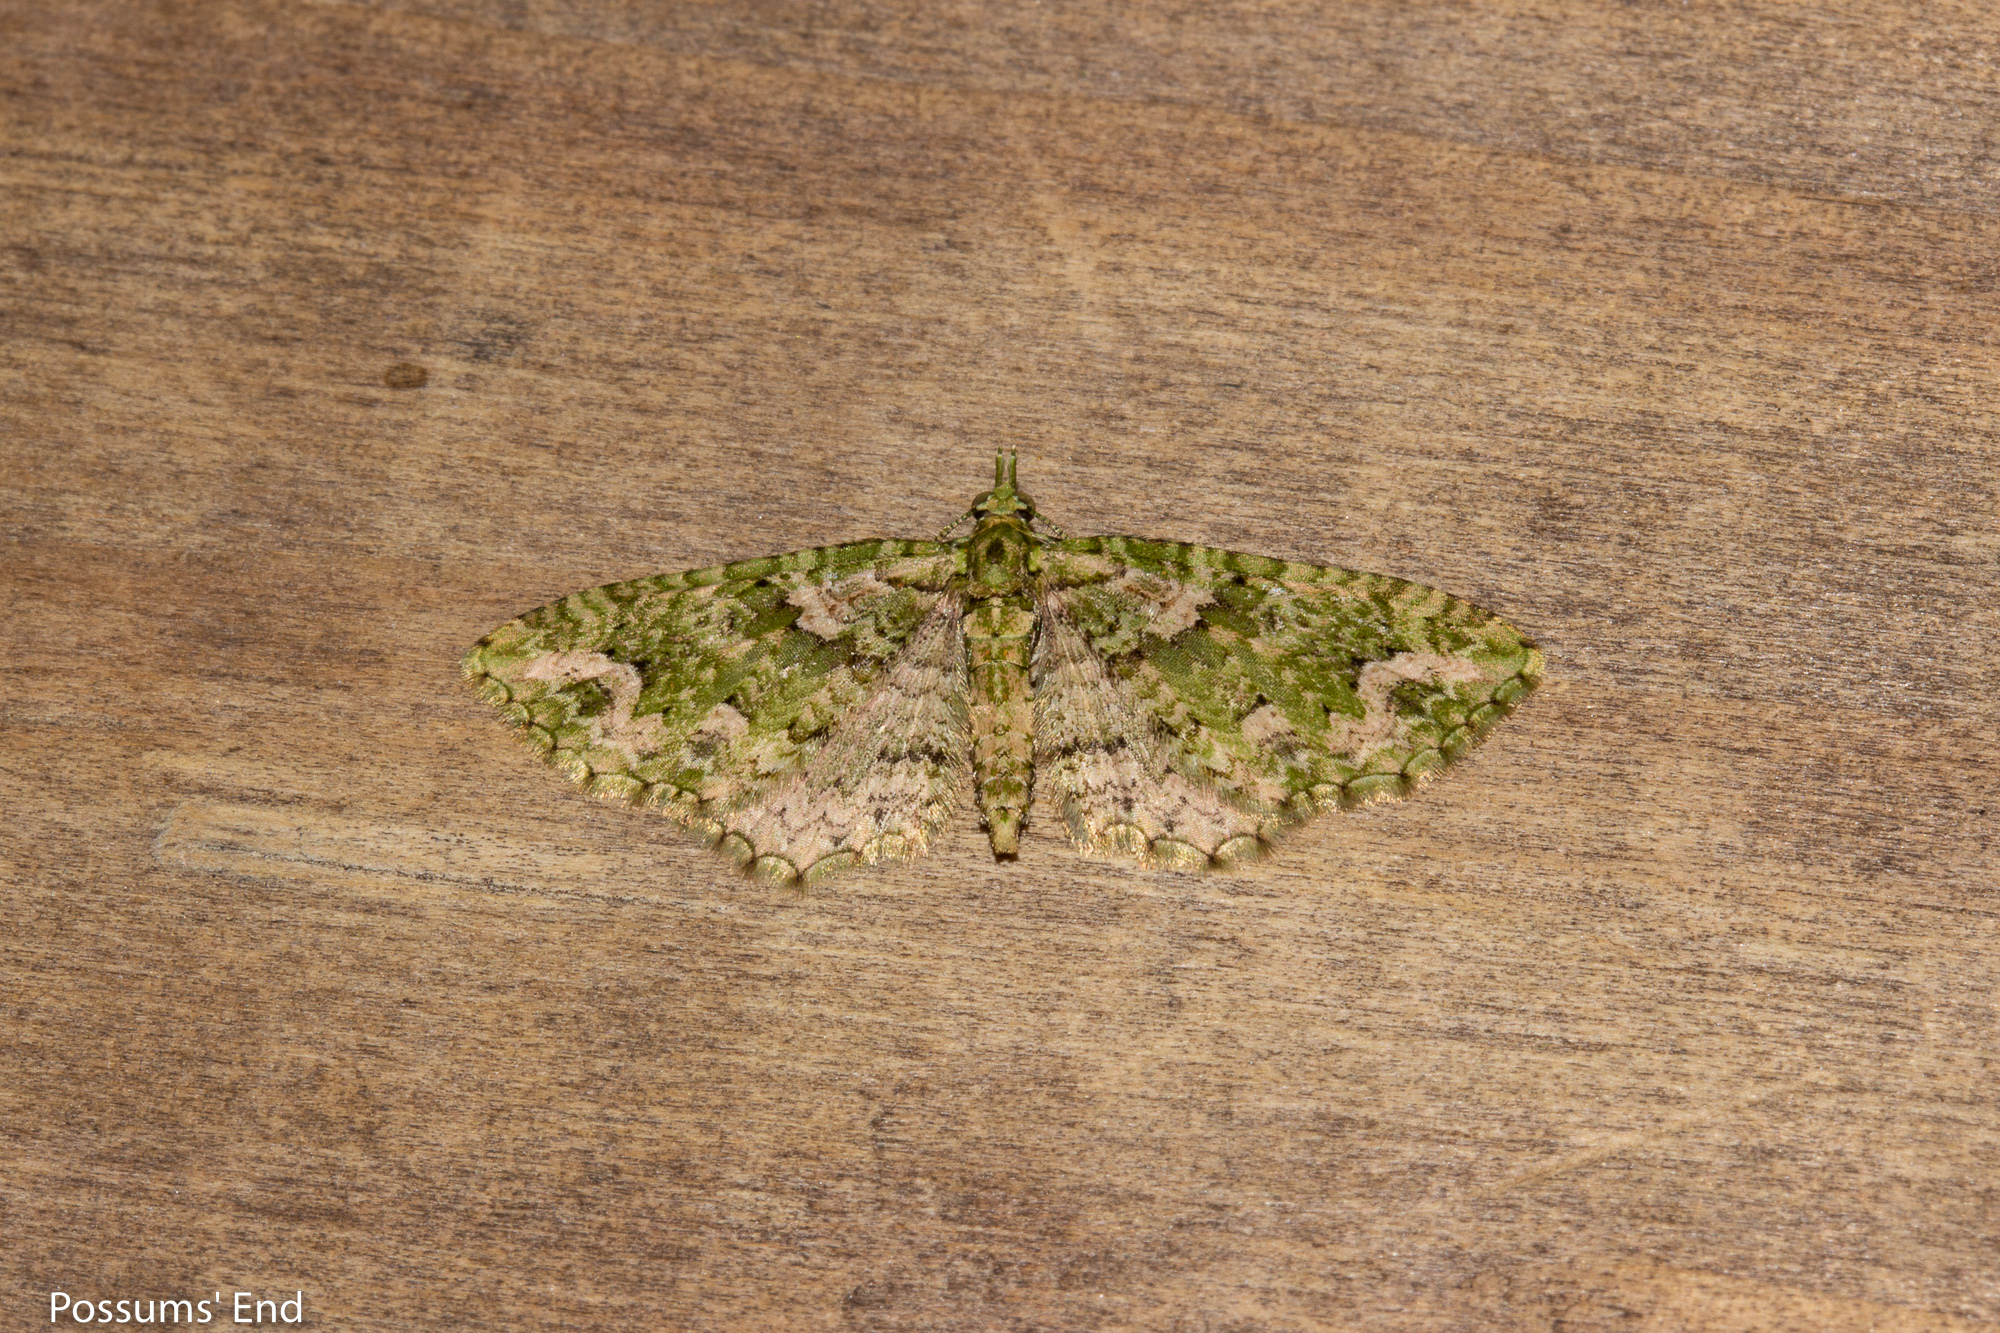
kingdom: Animalia
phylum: Arthropoda
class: Insecta
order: Lepidoptera
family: Geometridae
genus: Pasiphila
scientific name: Pasiphila muscosata
